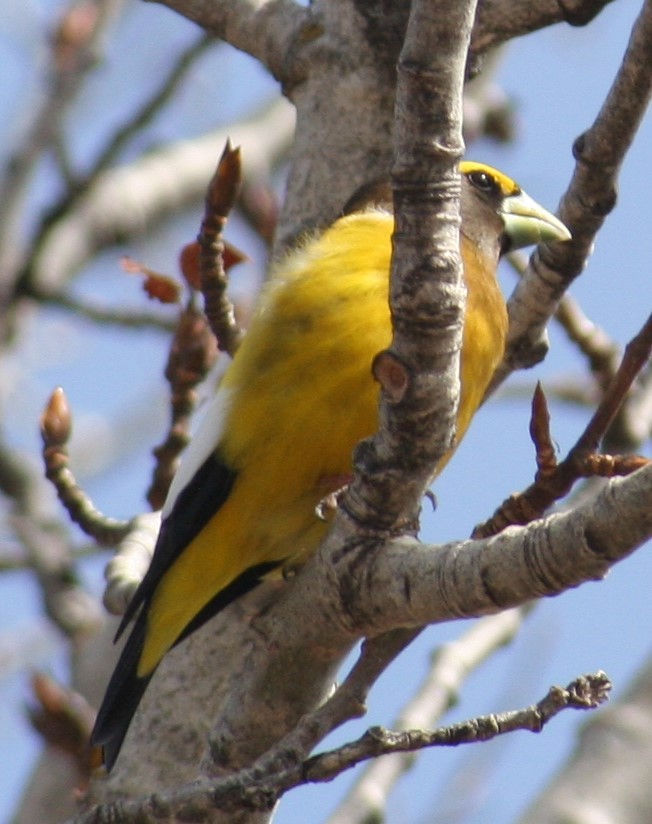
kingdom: Animalia
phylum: Chordata
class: Aves
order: Passeriformes
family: Fringillidae
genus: Hesperiphona
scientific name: Hesperiphona vespertina
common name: Evening grosbeak
